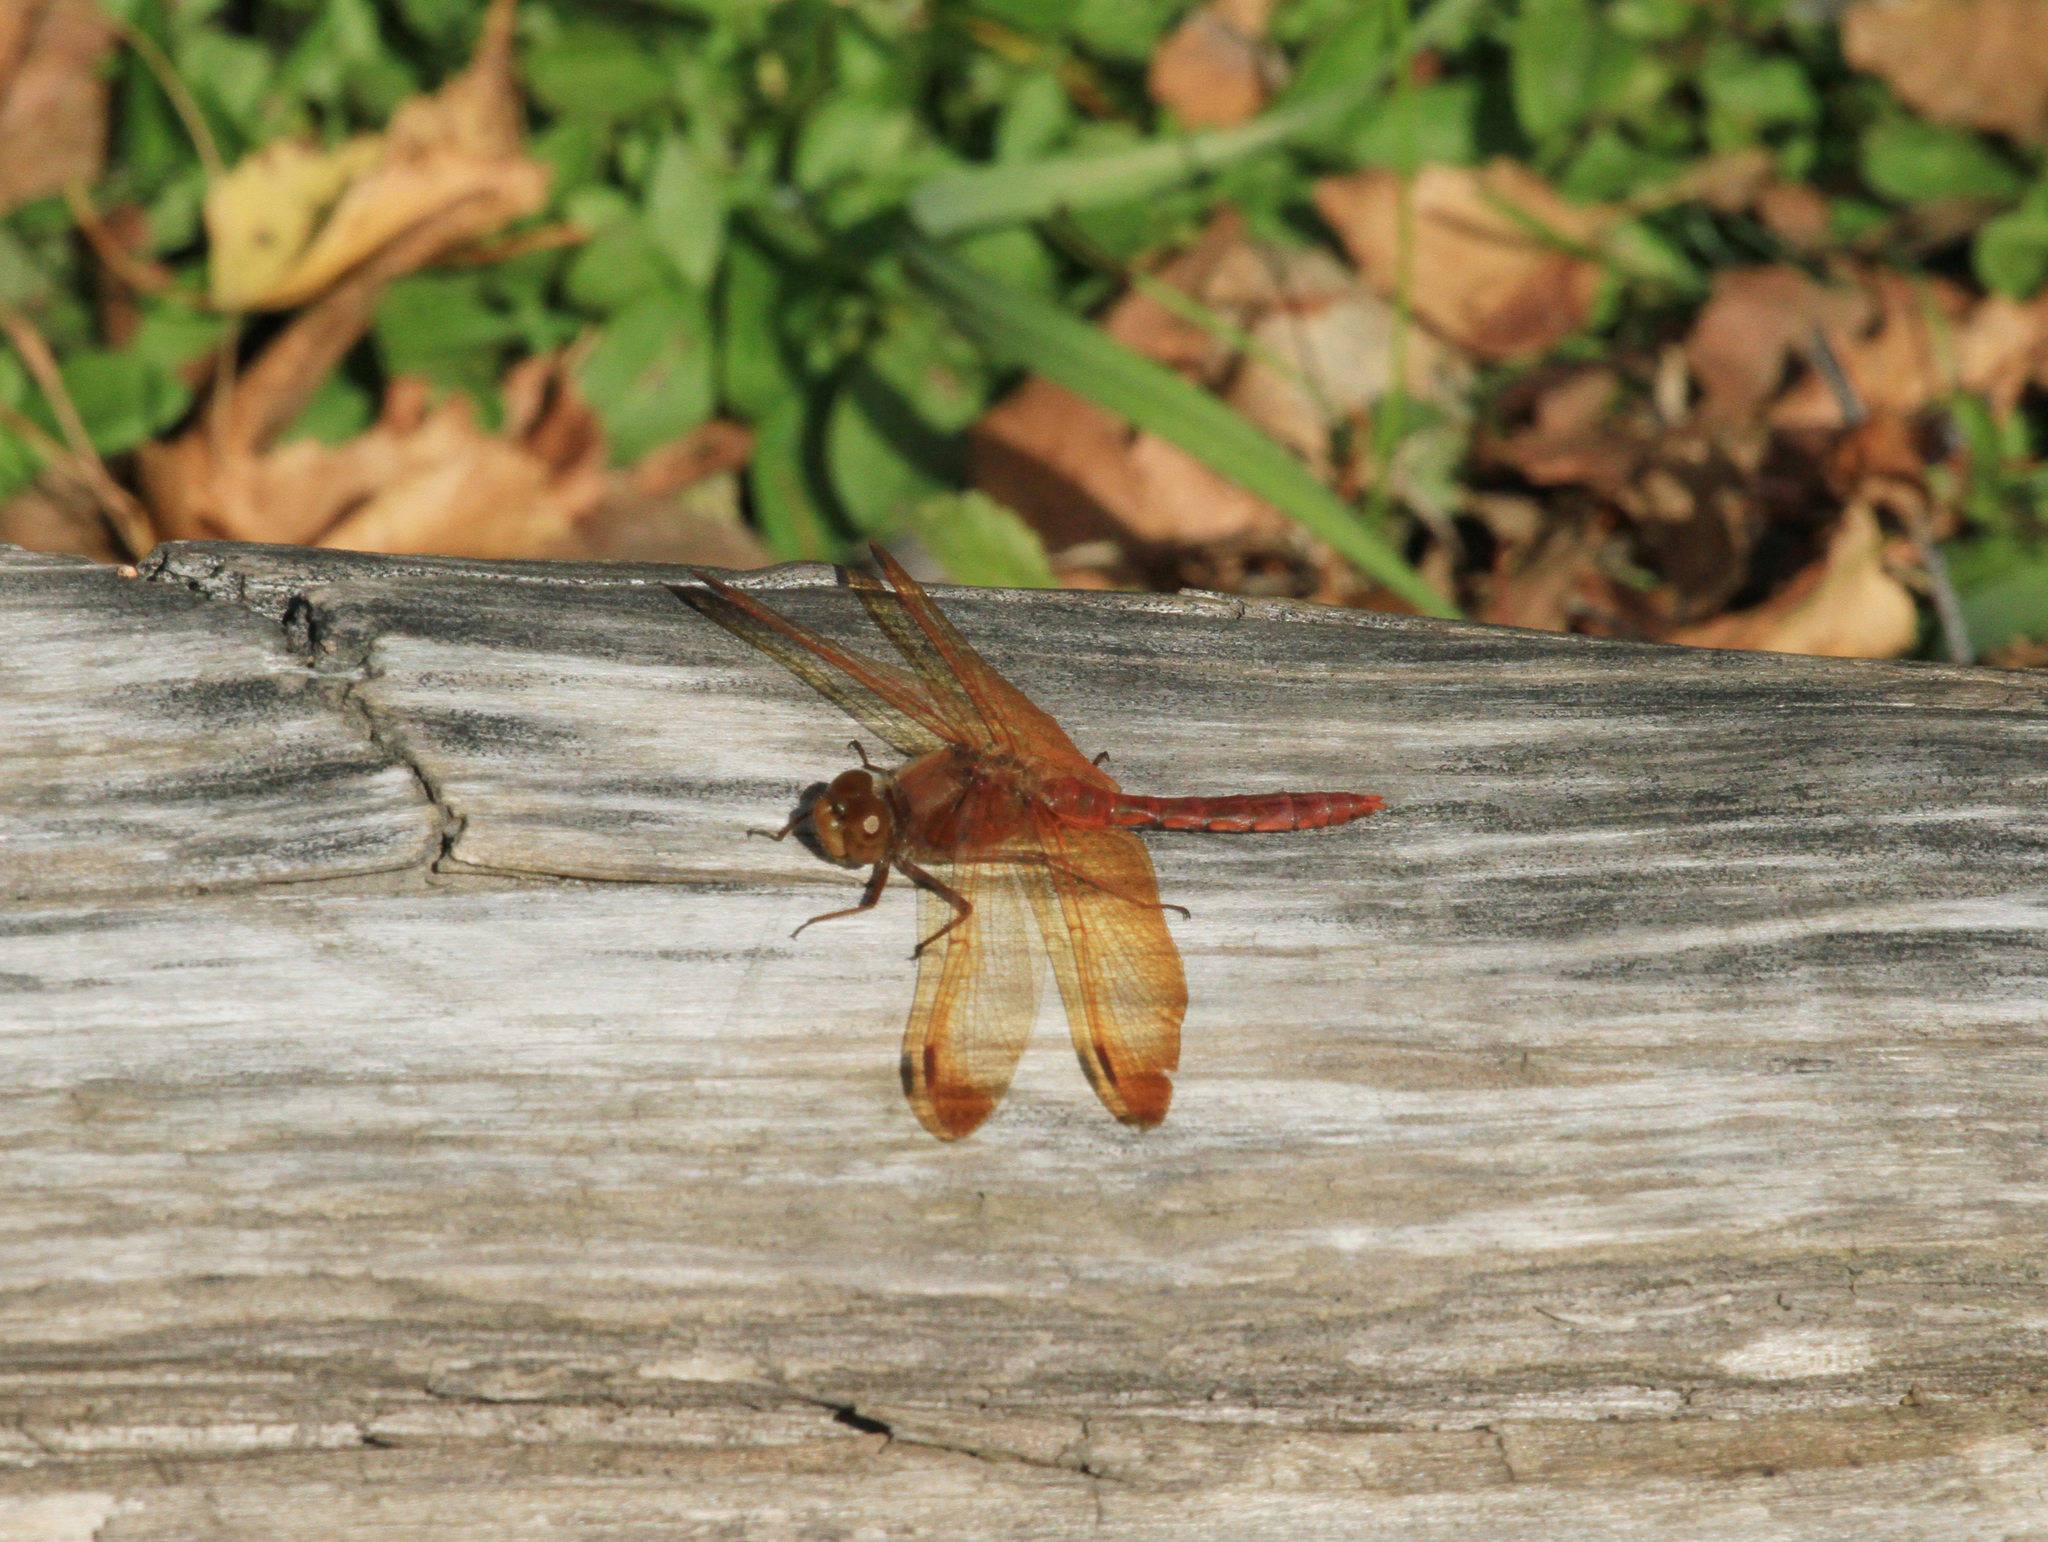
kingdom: Animalia
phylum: Arthropoda
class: Insecta
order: Odonata
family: Libellulidae
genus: Sympetrum
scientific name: Sympetrum croceolum
